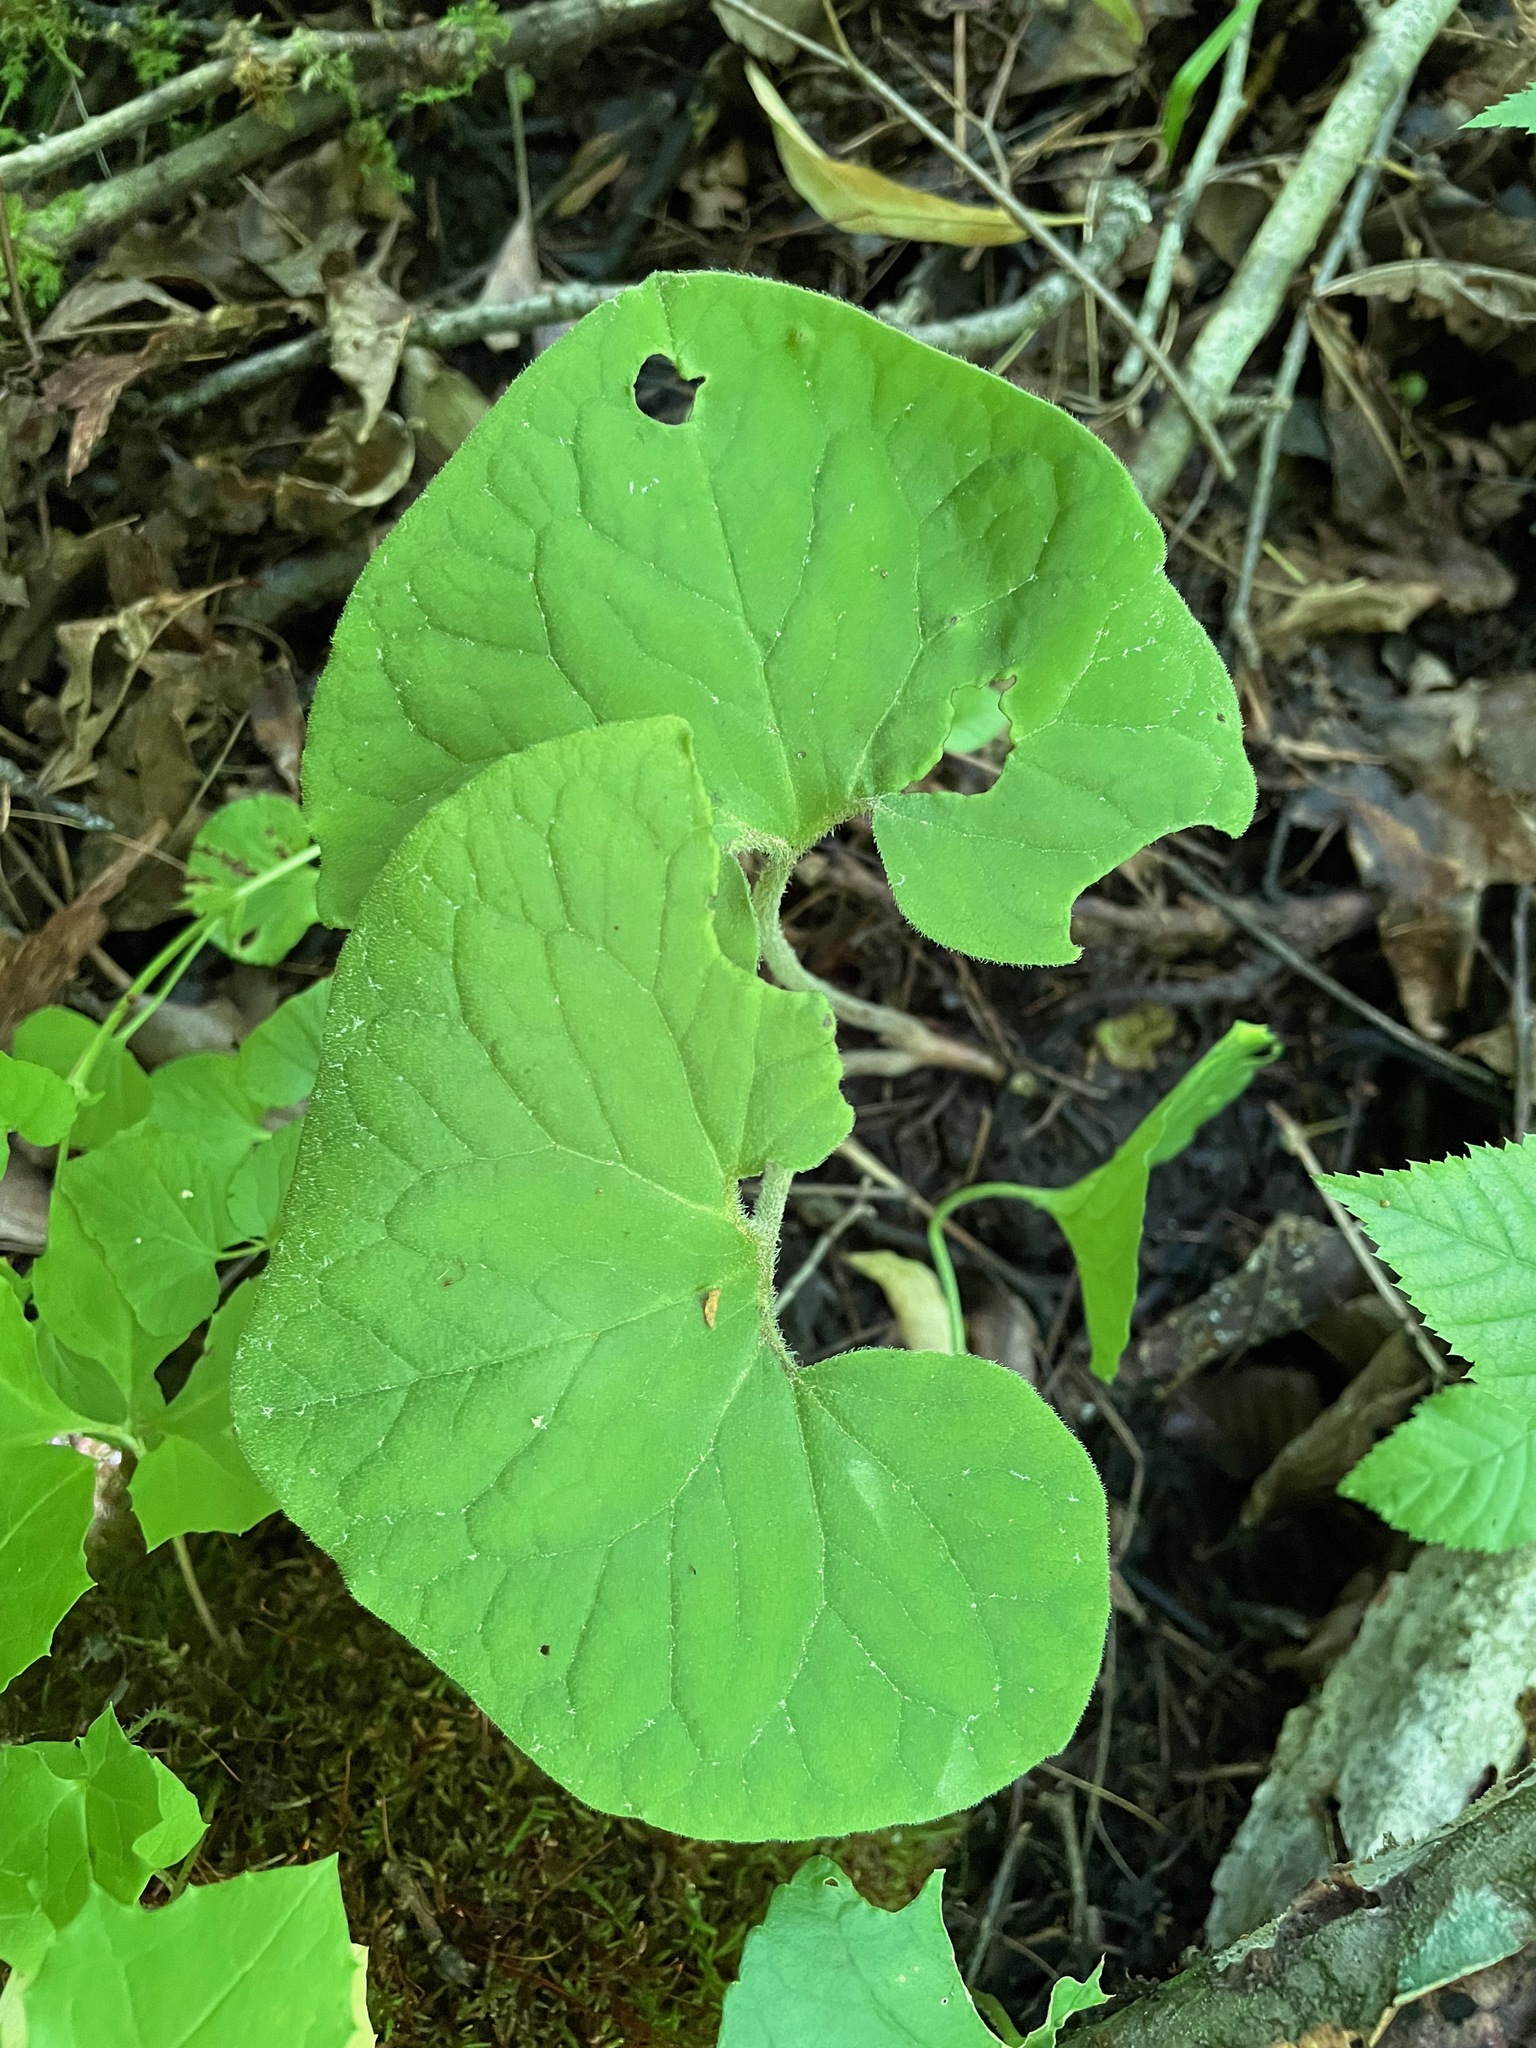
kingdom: Plantae
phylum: Tracheophyta
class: Magnoliopsida
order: Piperales
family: Aristolochiaceae
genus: Asarum
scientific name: Asarum canadense
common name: Wild ginger
